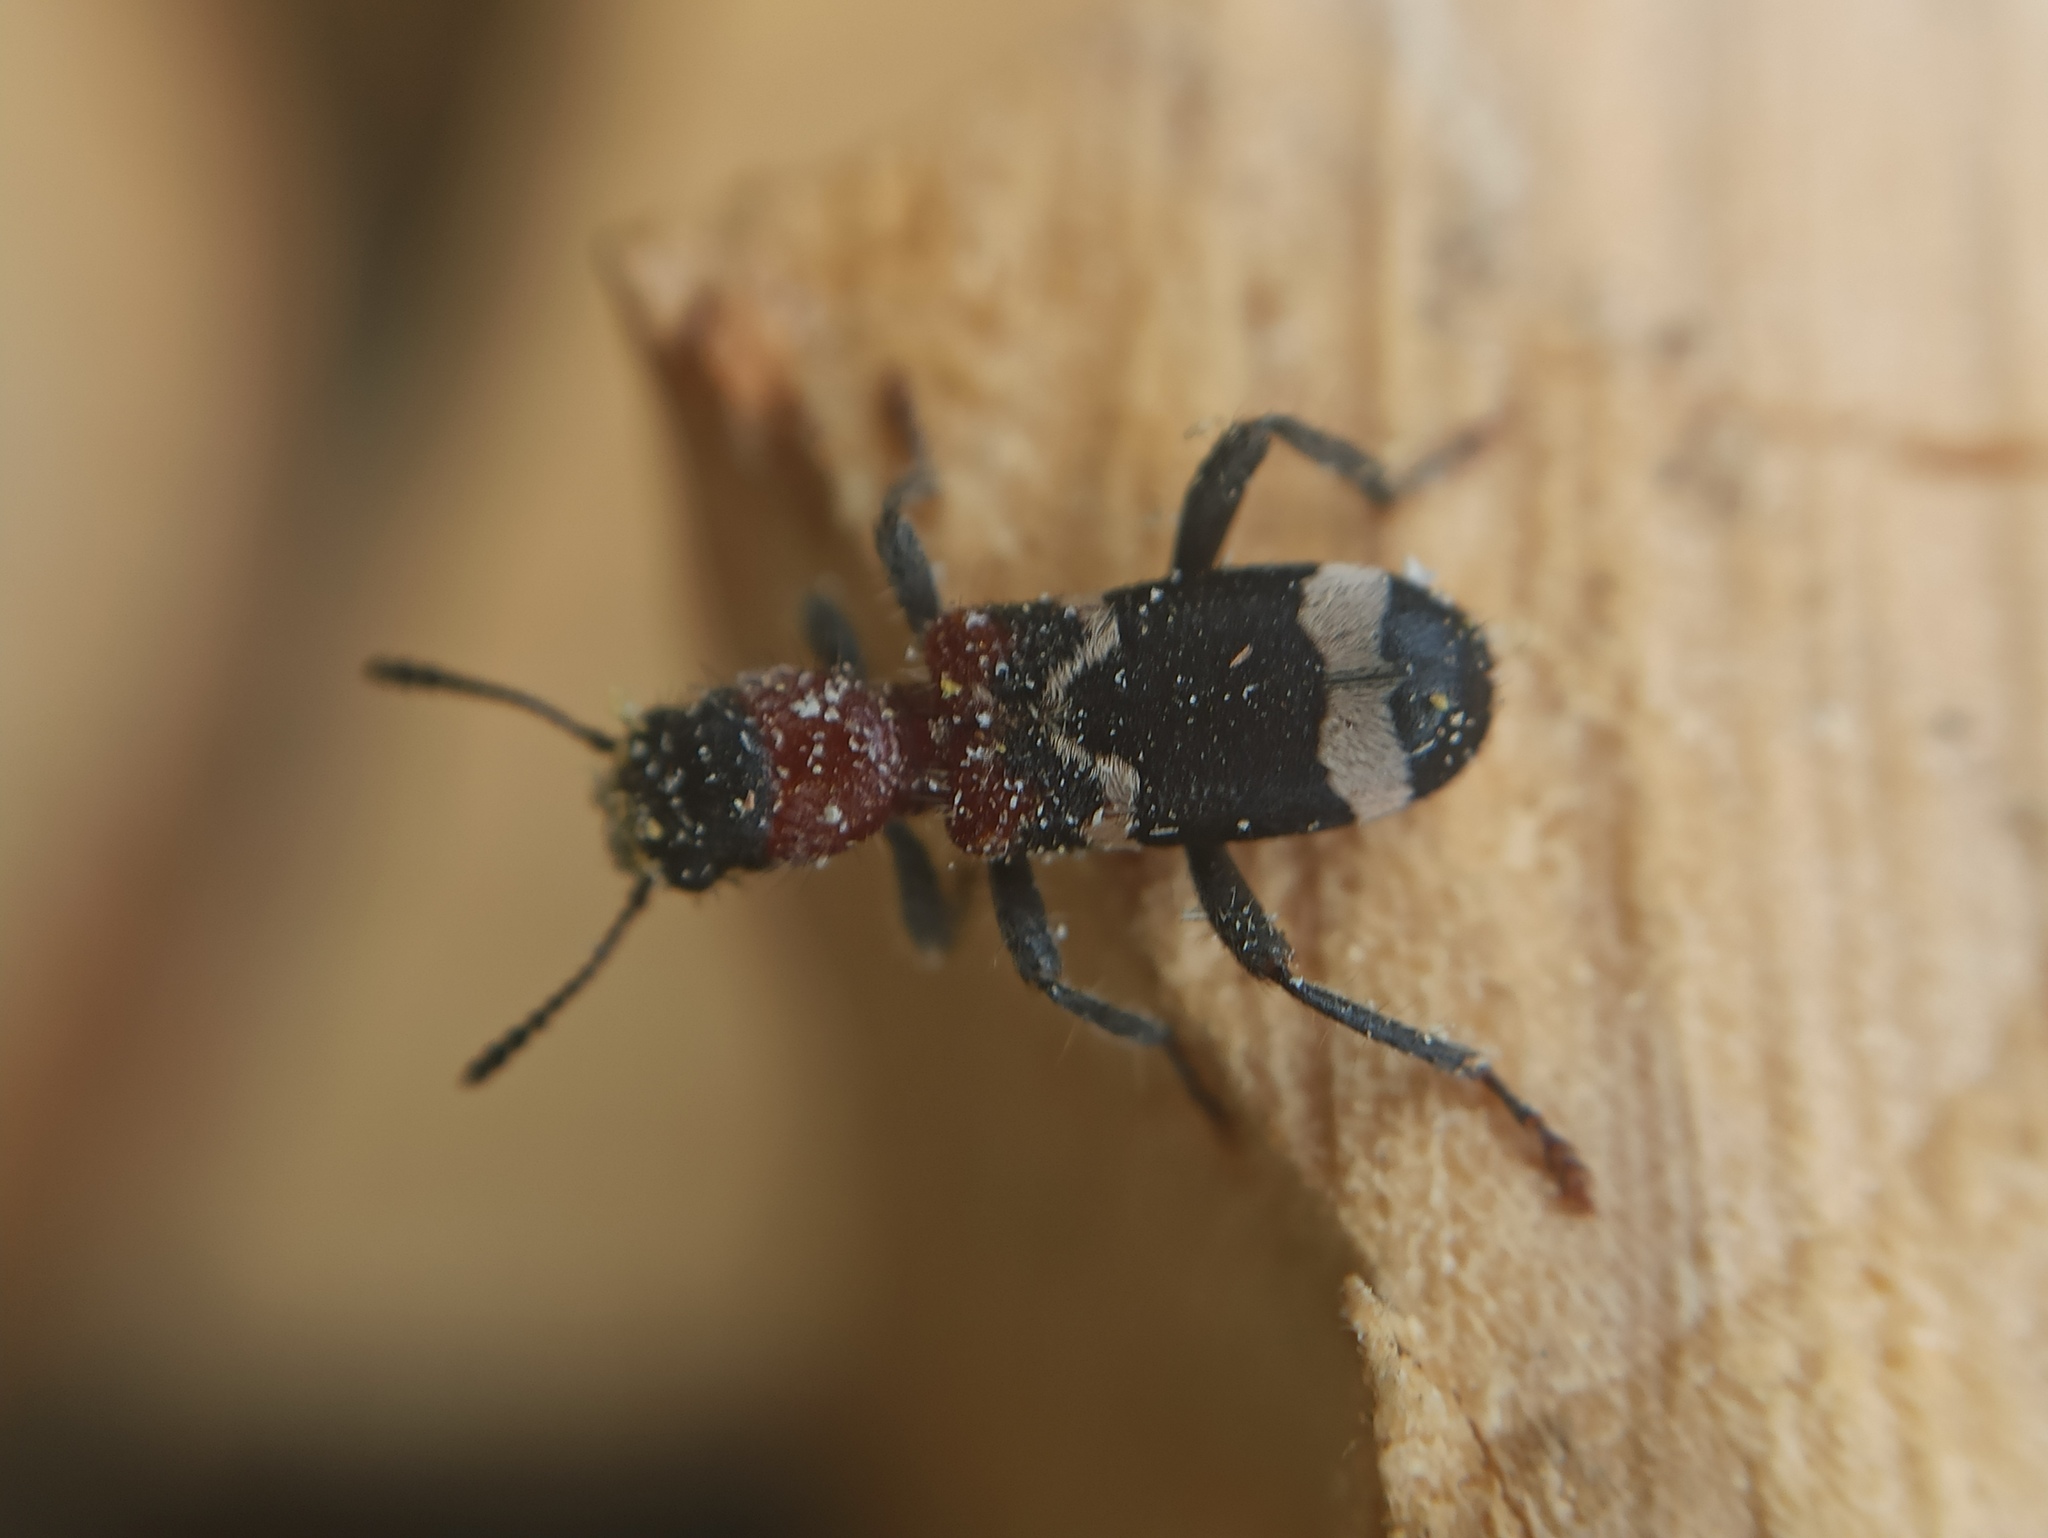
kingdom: Animalia
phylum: Arthropoda
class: Insecta
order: Coleoptera
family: Cleridae
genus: Thanasimus
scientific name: Thanasimus formicarius
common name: Ant beetle
